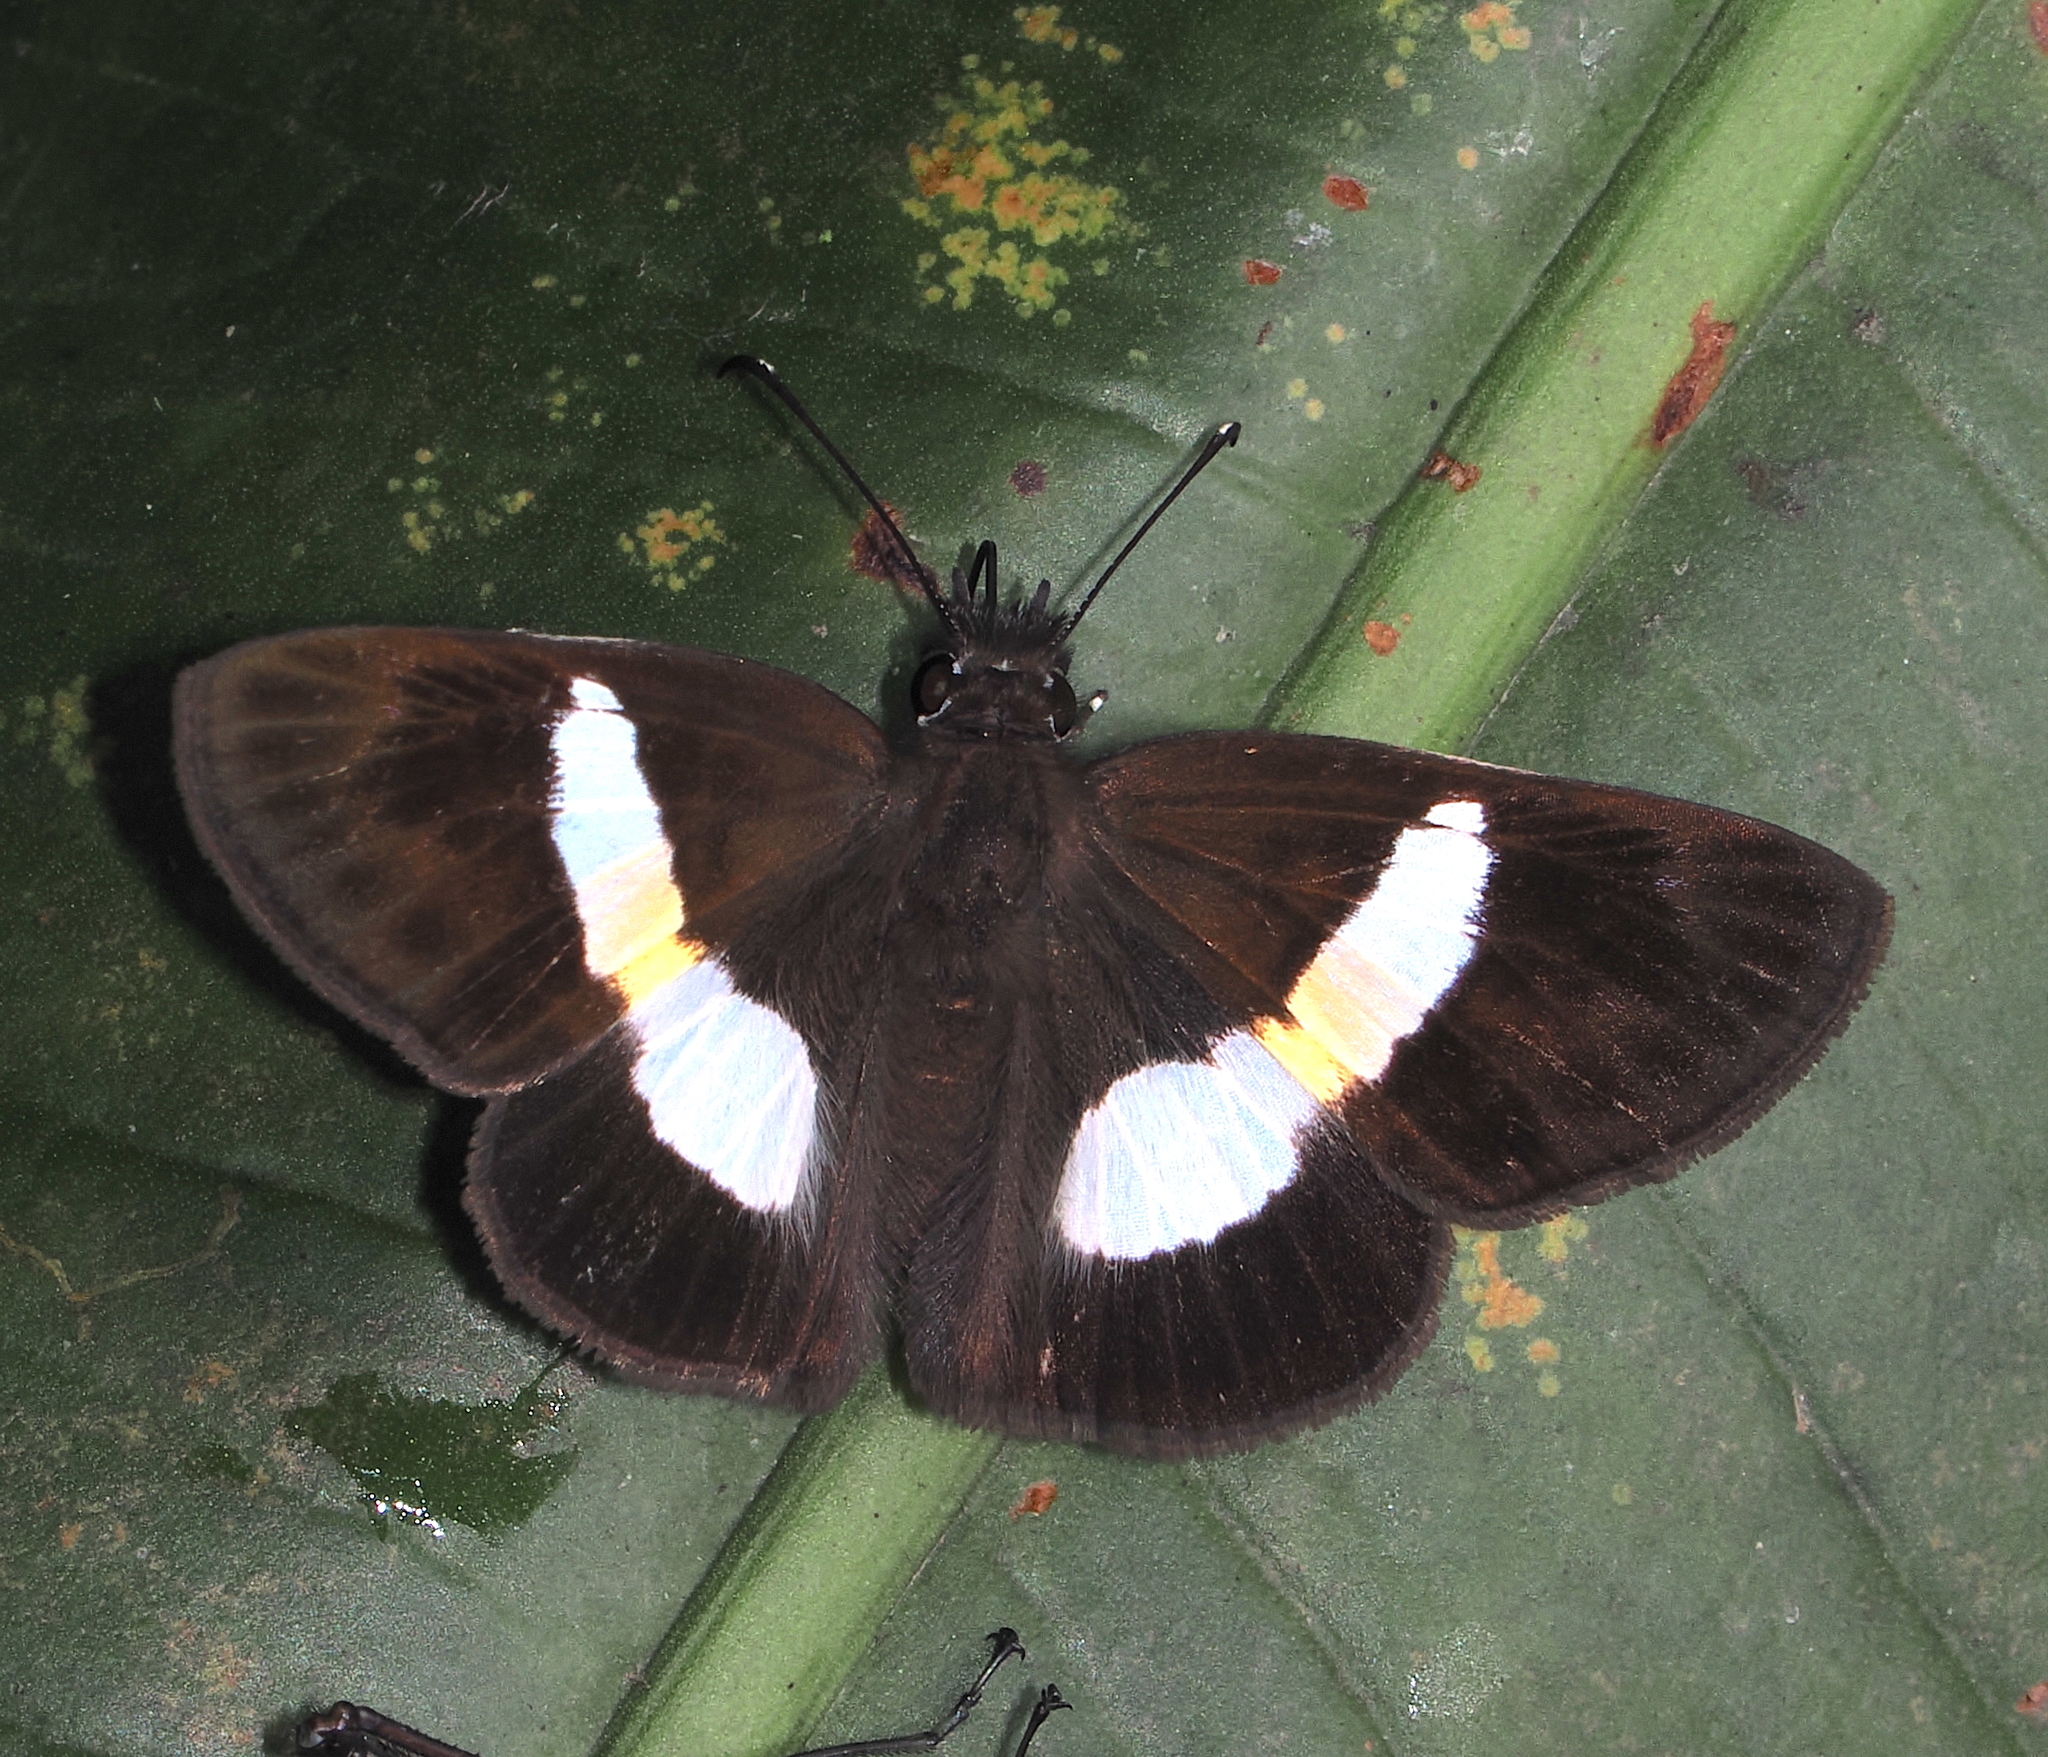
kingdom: Animalia
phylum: Arthropoda
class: Insecta
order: Lepidoptera
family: Hesperiidae
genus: Potamanaxas
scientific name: Potamanaxas
